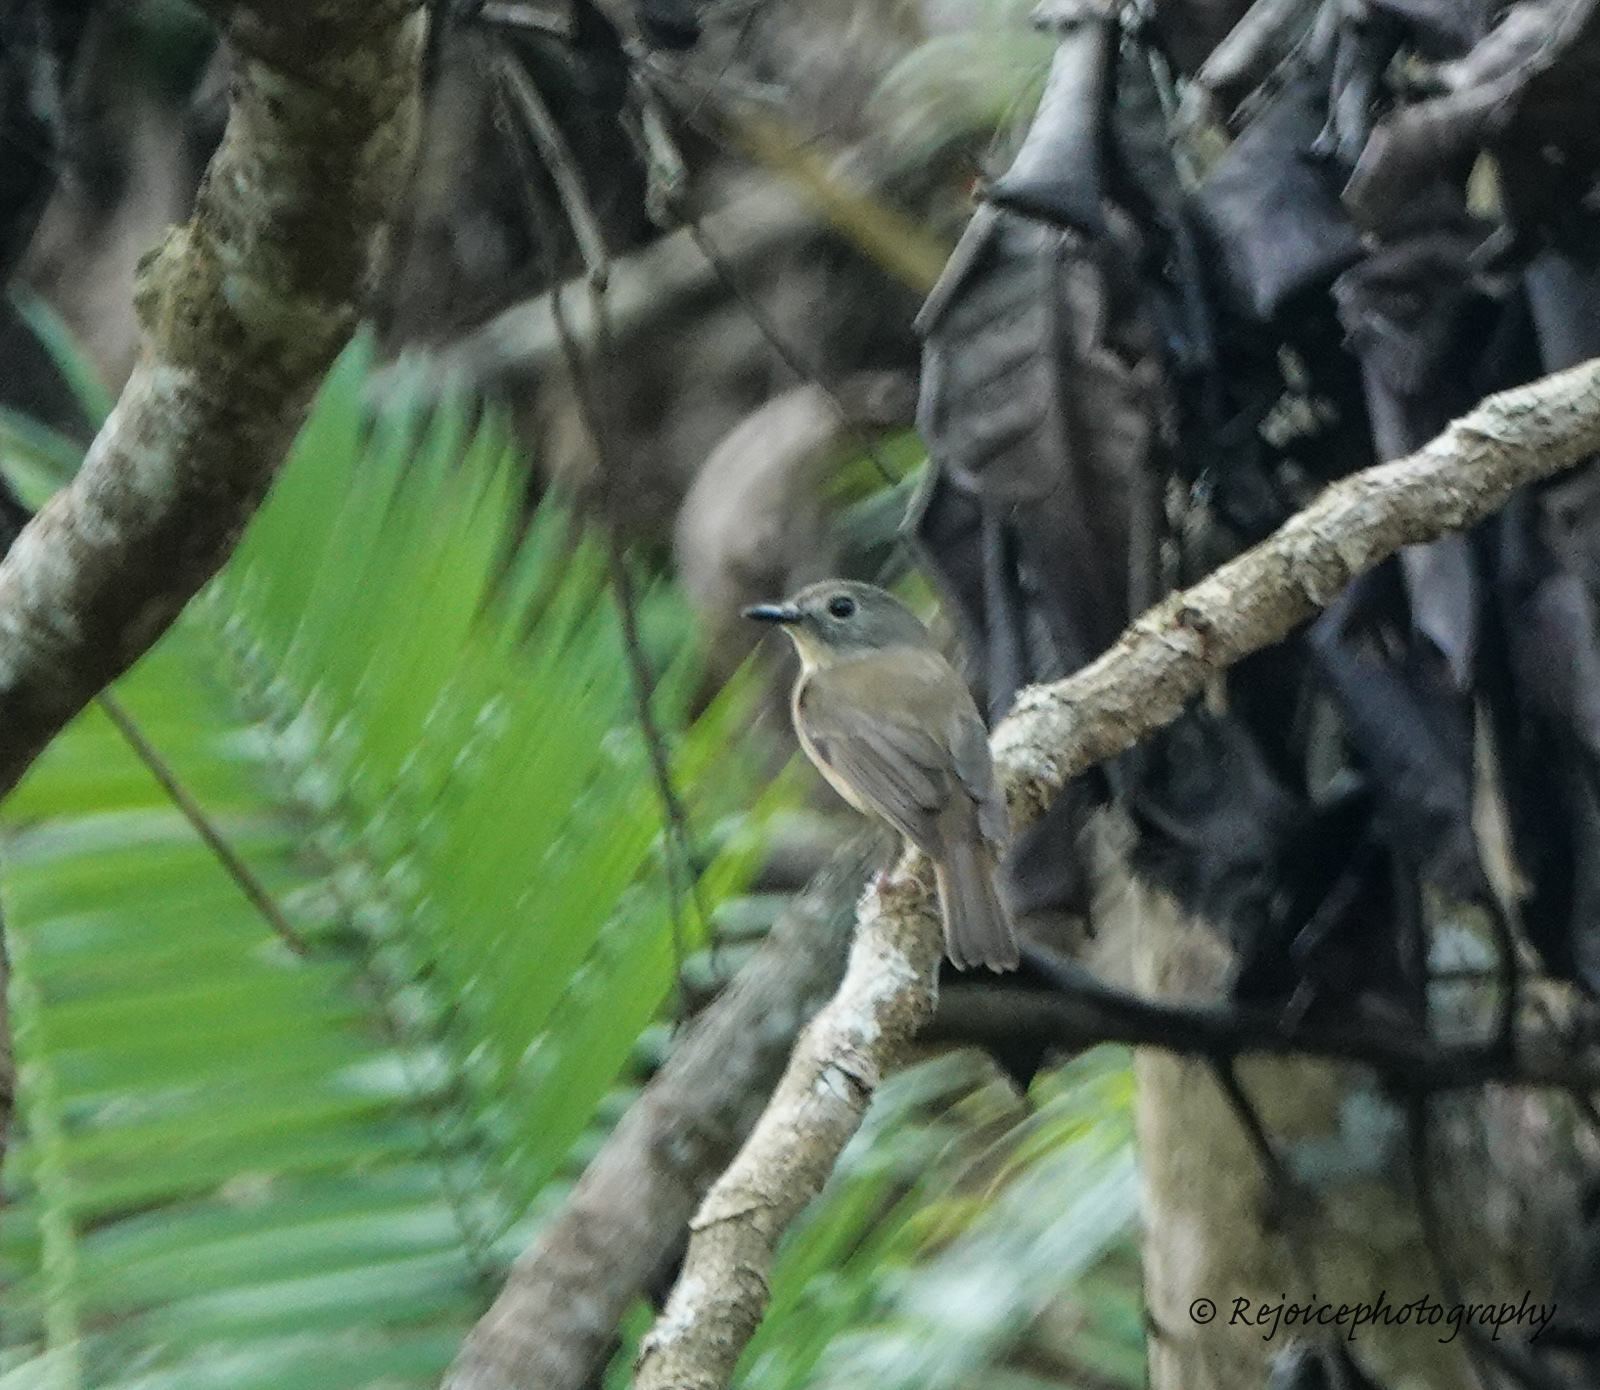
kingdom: Animalia
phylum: Chordata
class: Aves
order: Passeriformes
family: Muscicapidae
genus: Cyornis
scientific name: Cyornis poliogenys
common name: Pale-chinned blue flycatcher
